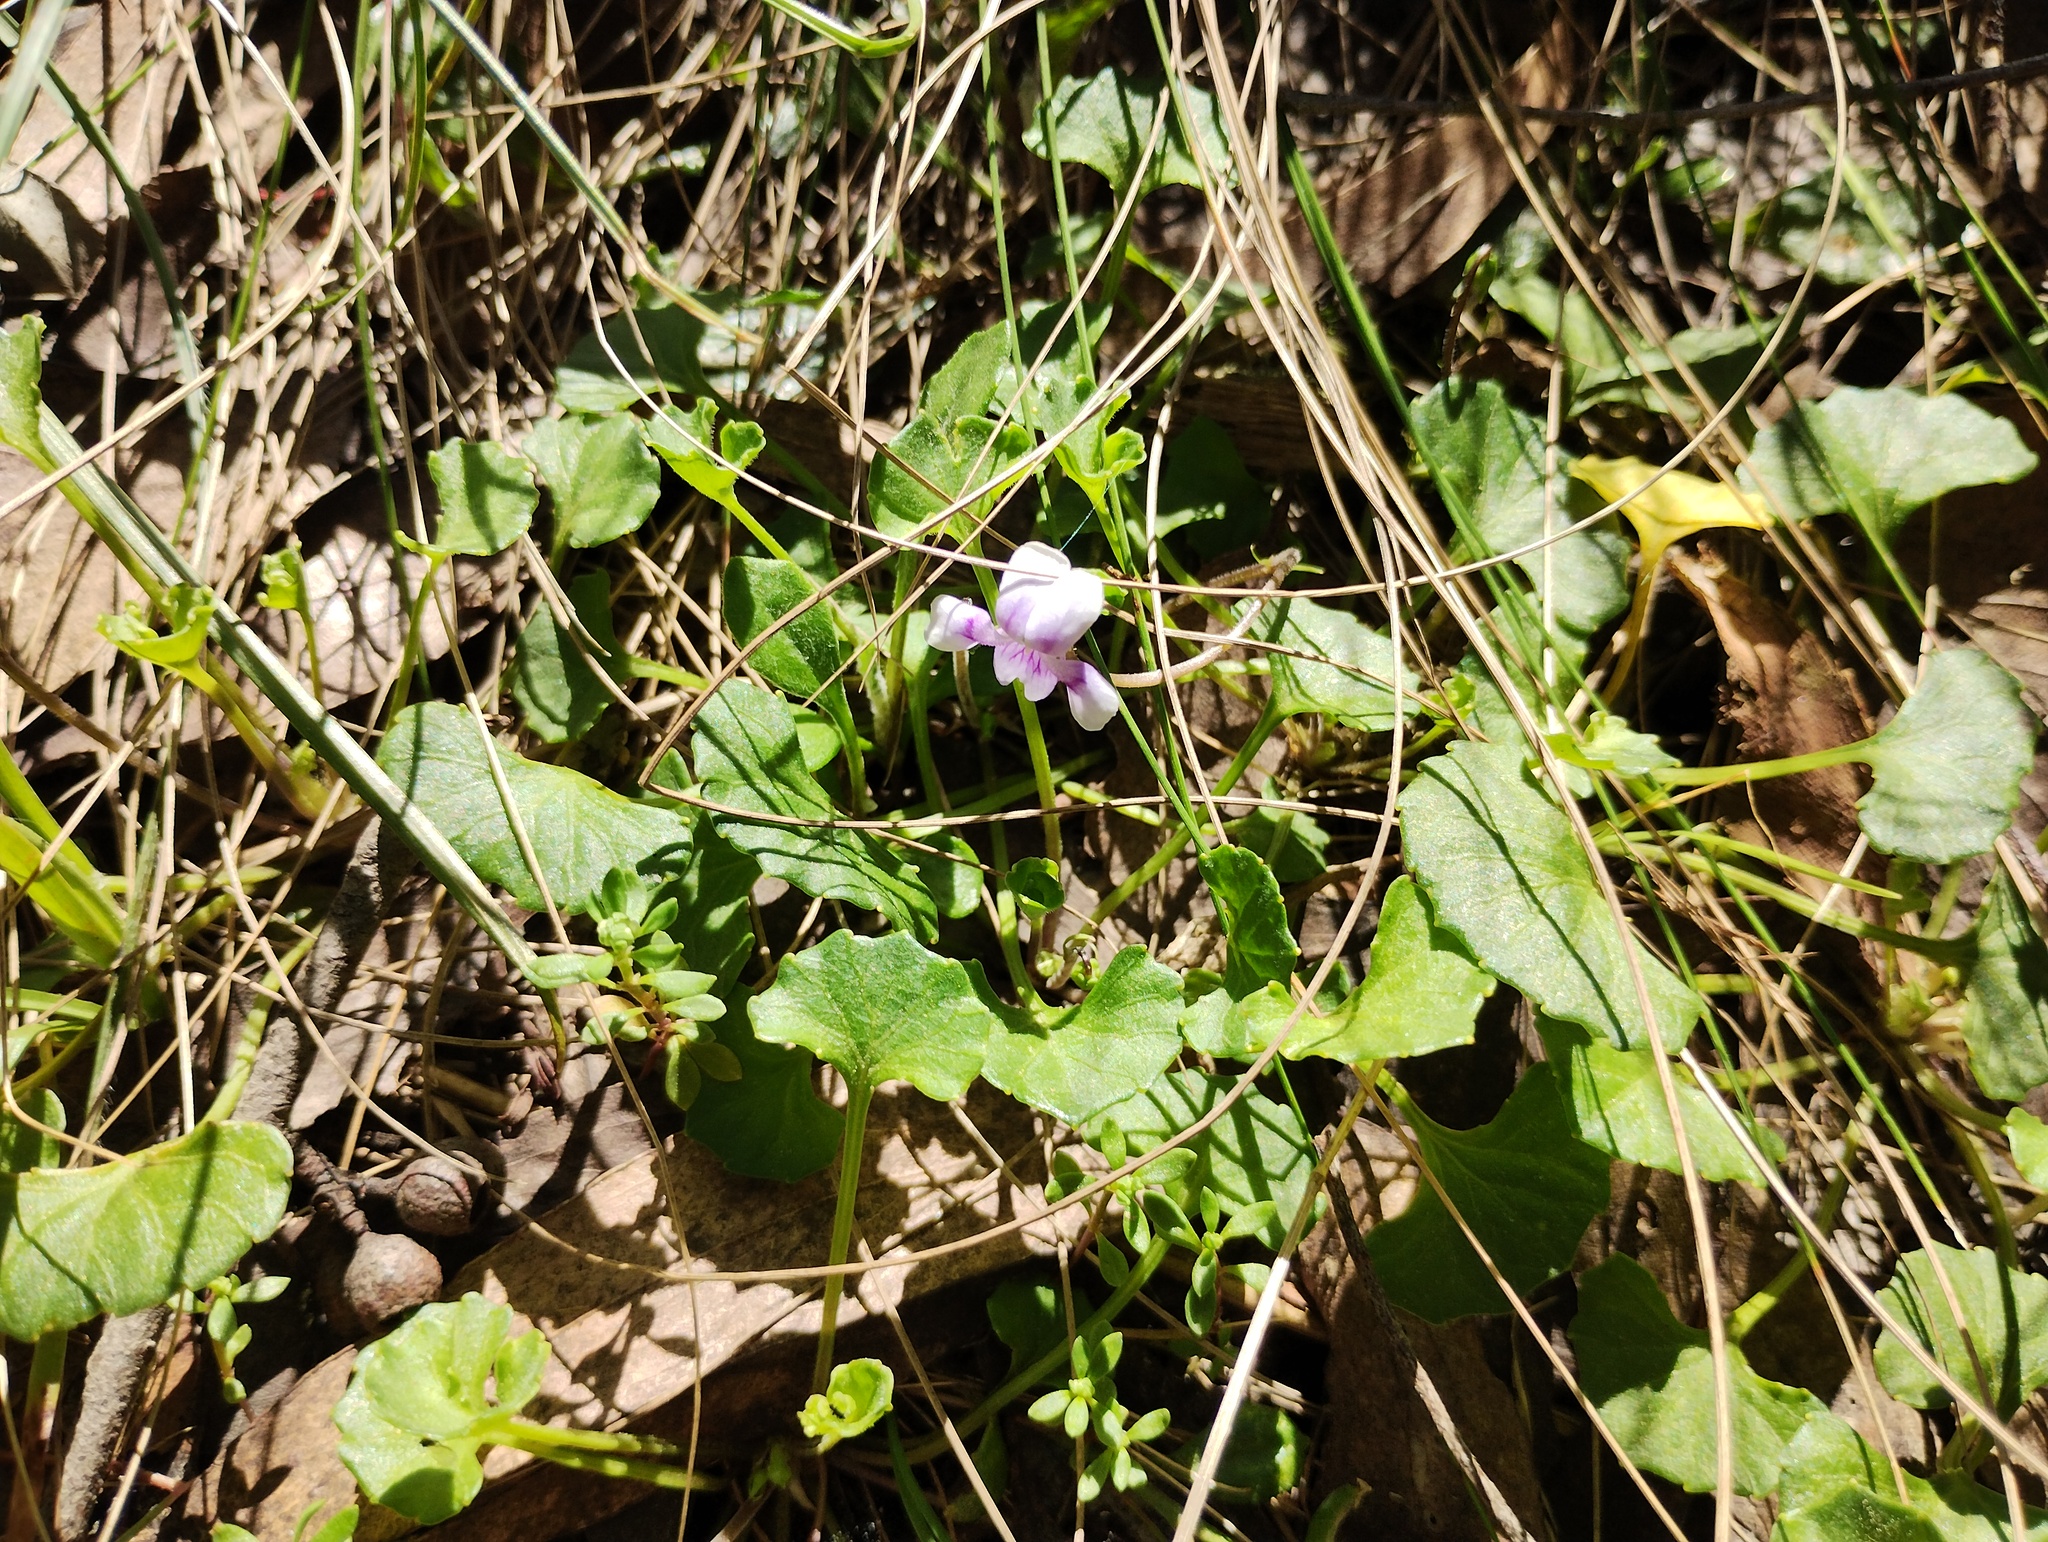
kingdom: Plantae
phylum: Tracheophyta
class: Magnoliopsida
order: Malpighiales
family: Violaceae
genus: Viola
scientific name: Viola hederacea
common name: Australian violet
